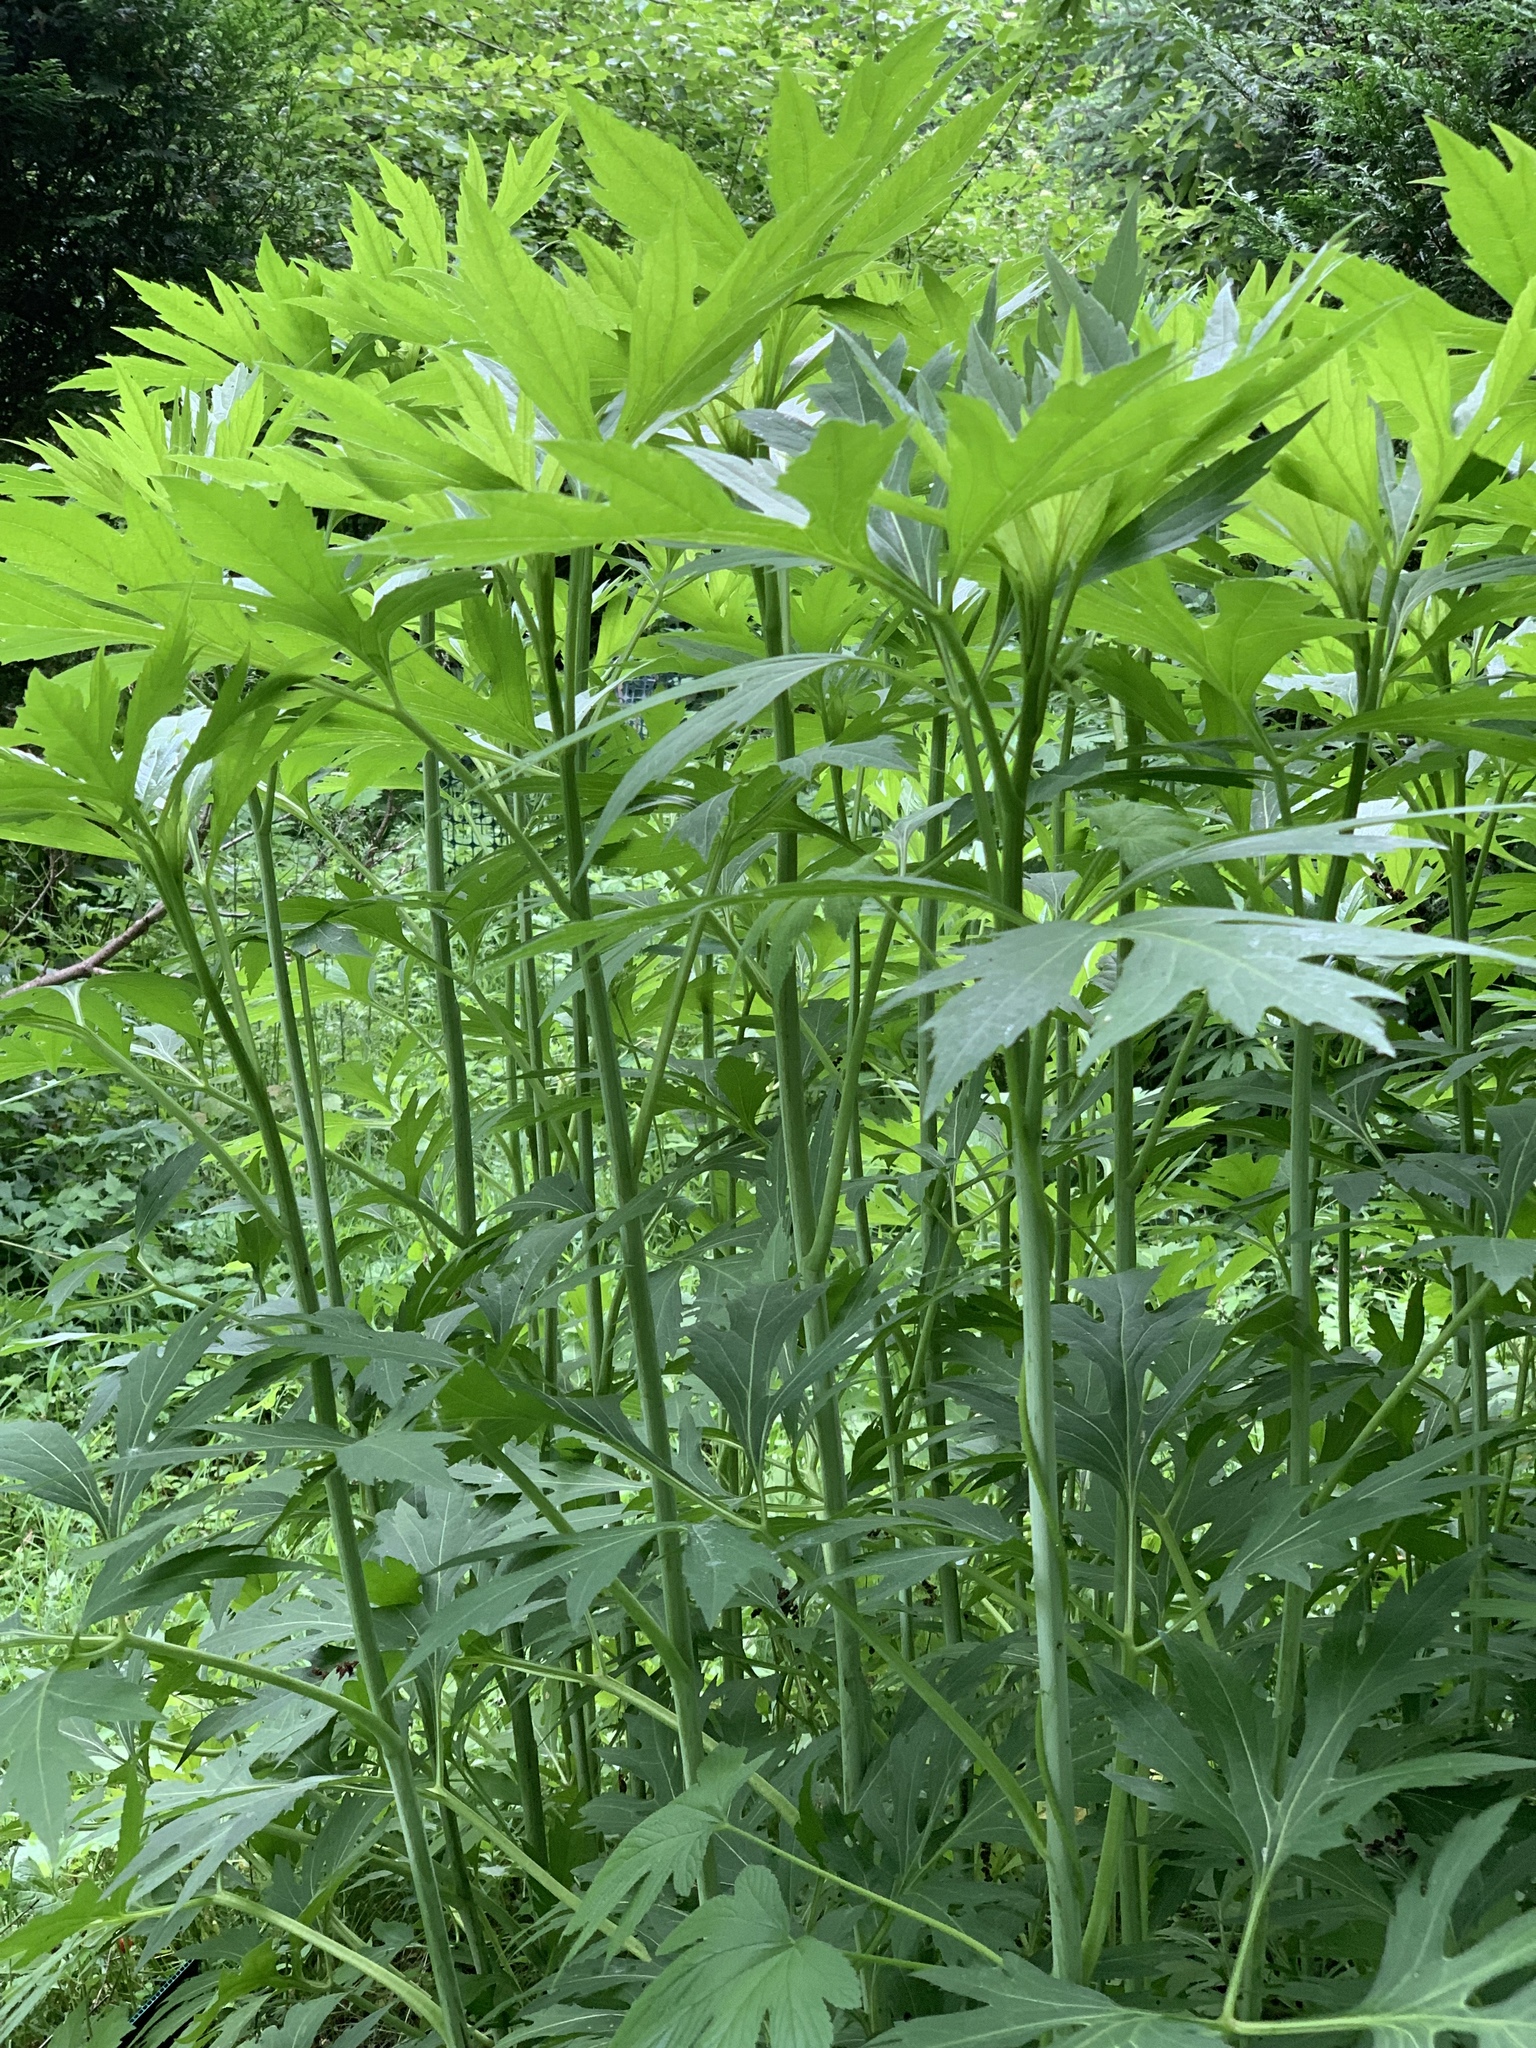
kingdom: Plantae
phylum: Tracheophyta
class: Magnoliopsida
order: Asterales
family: Asteraceae
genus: Rudbeckia
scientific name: Rudbeckia laciniata
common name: Coneflower
